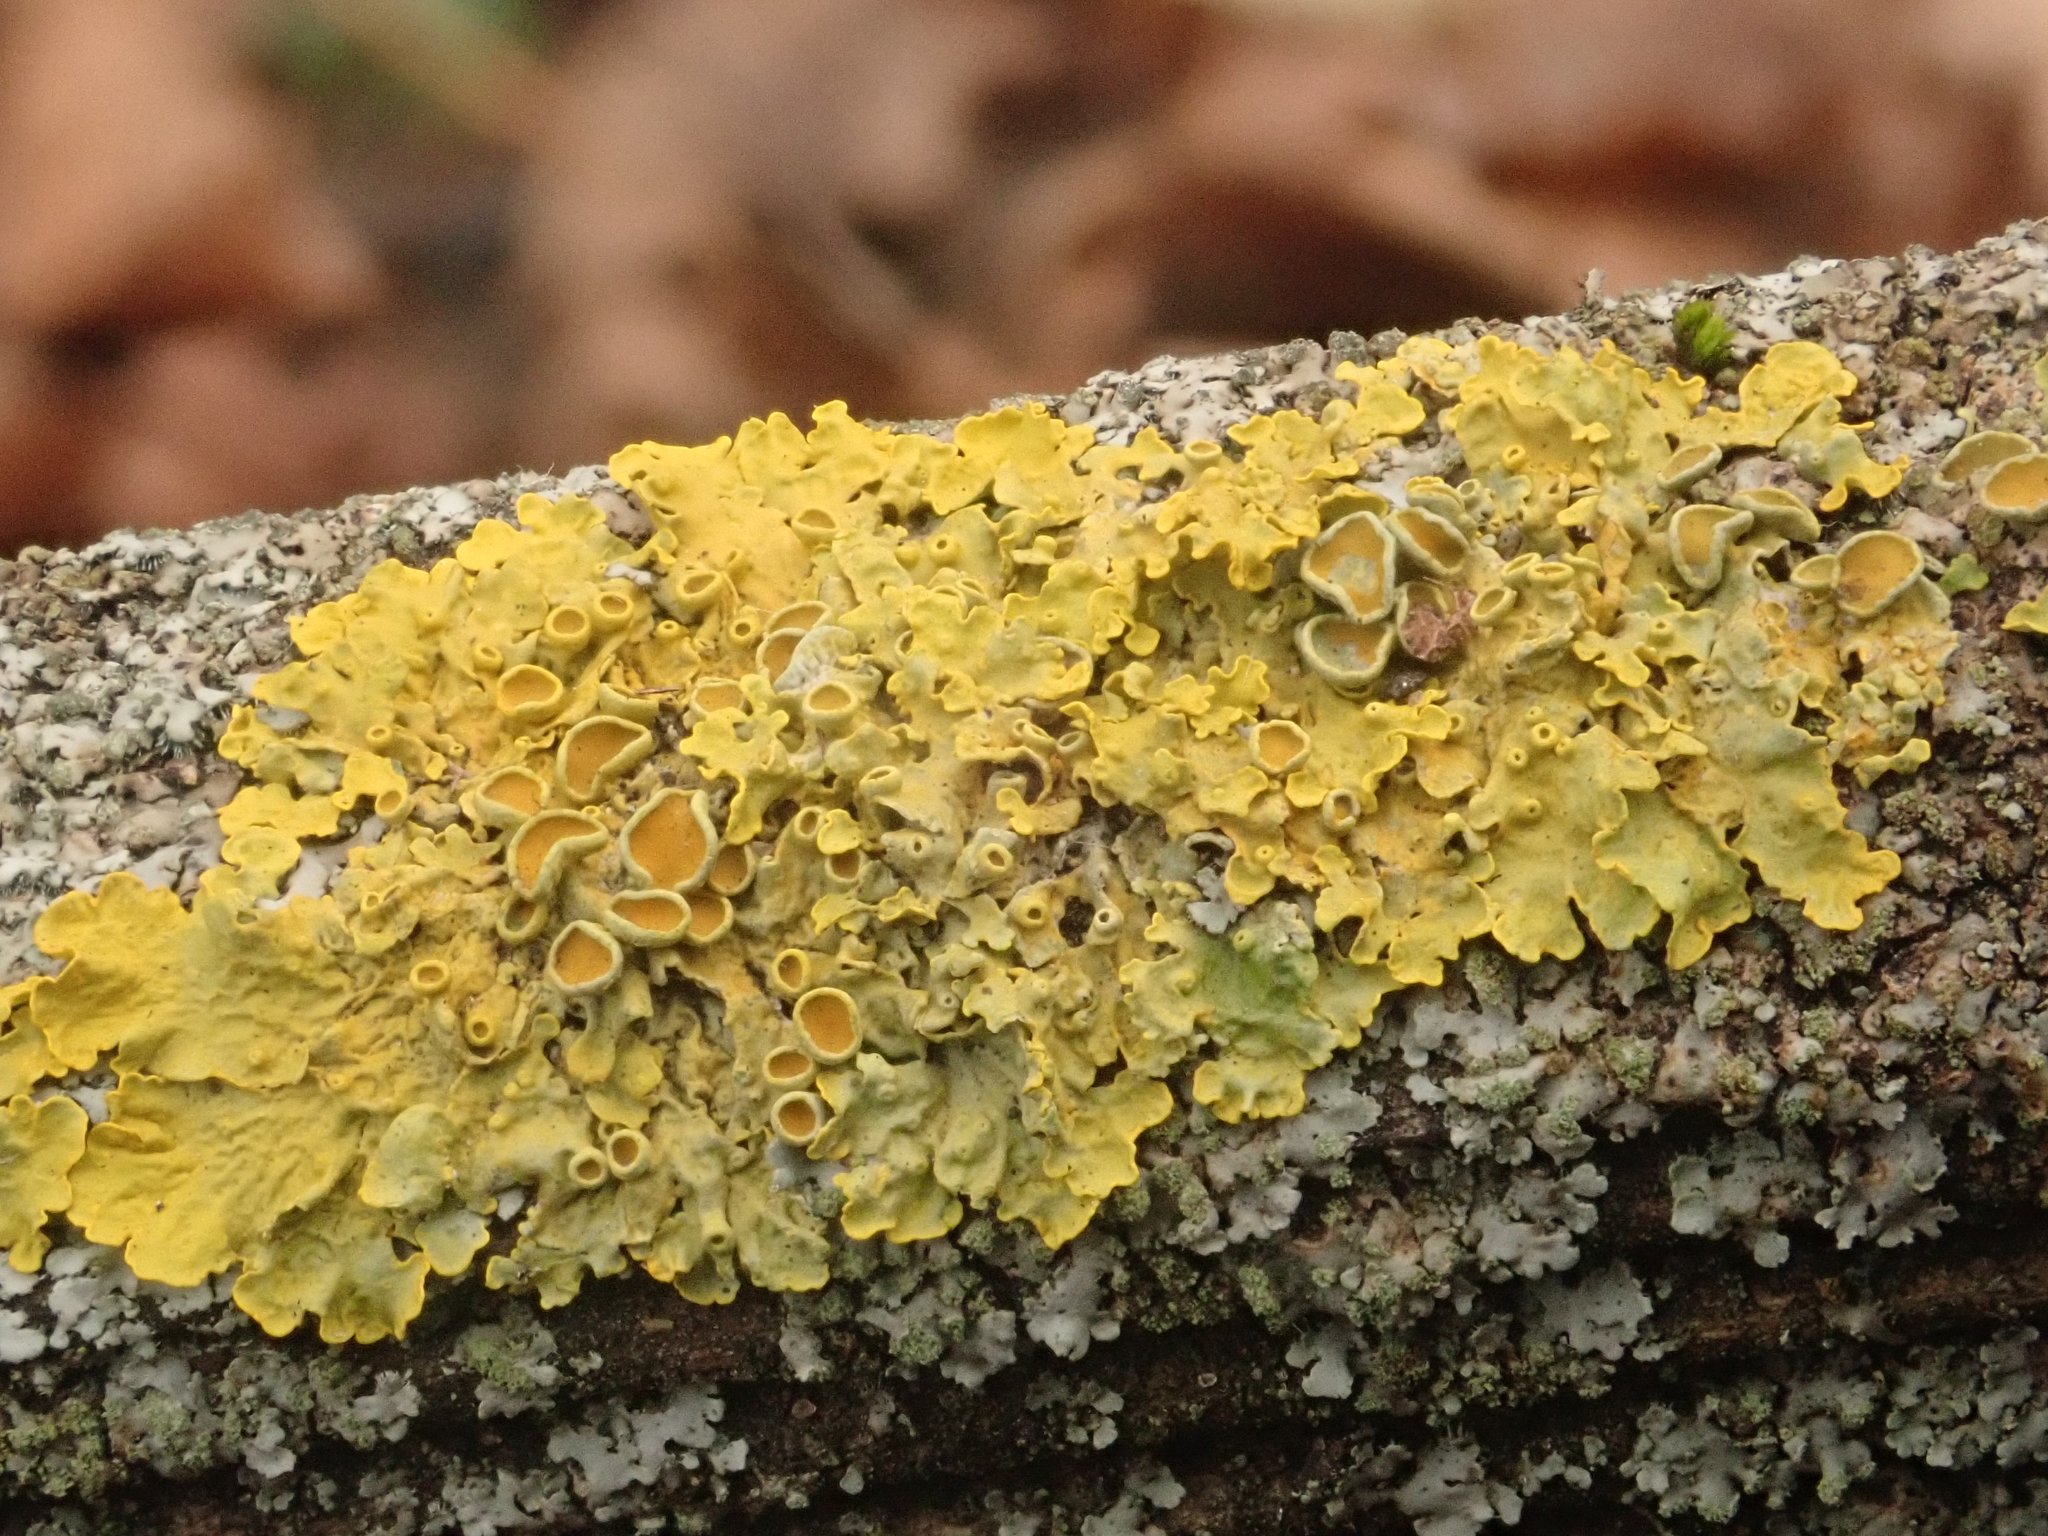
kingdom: Fungi
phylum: Ascomycota
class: Lecanoromycetes
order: Teloschistales
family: Teloschistaceae
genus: Xanthoria
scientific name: Xanthoria parietina
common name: Common orange lichen
